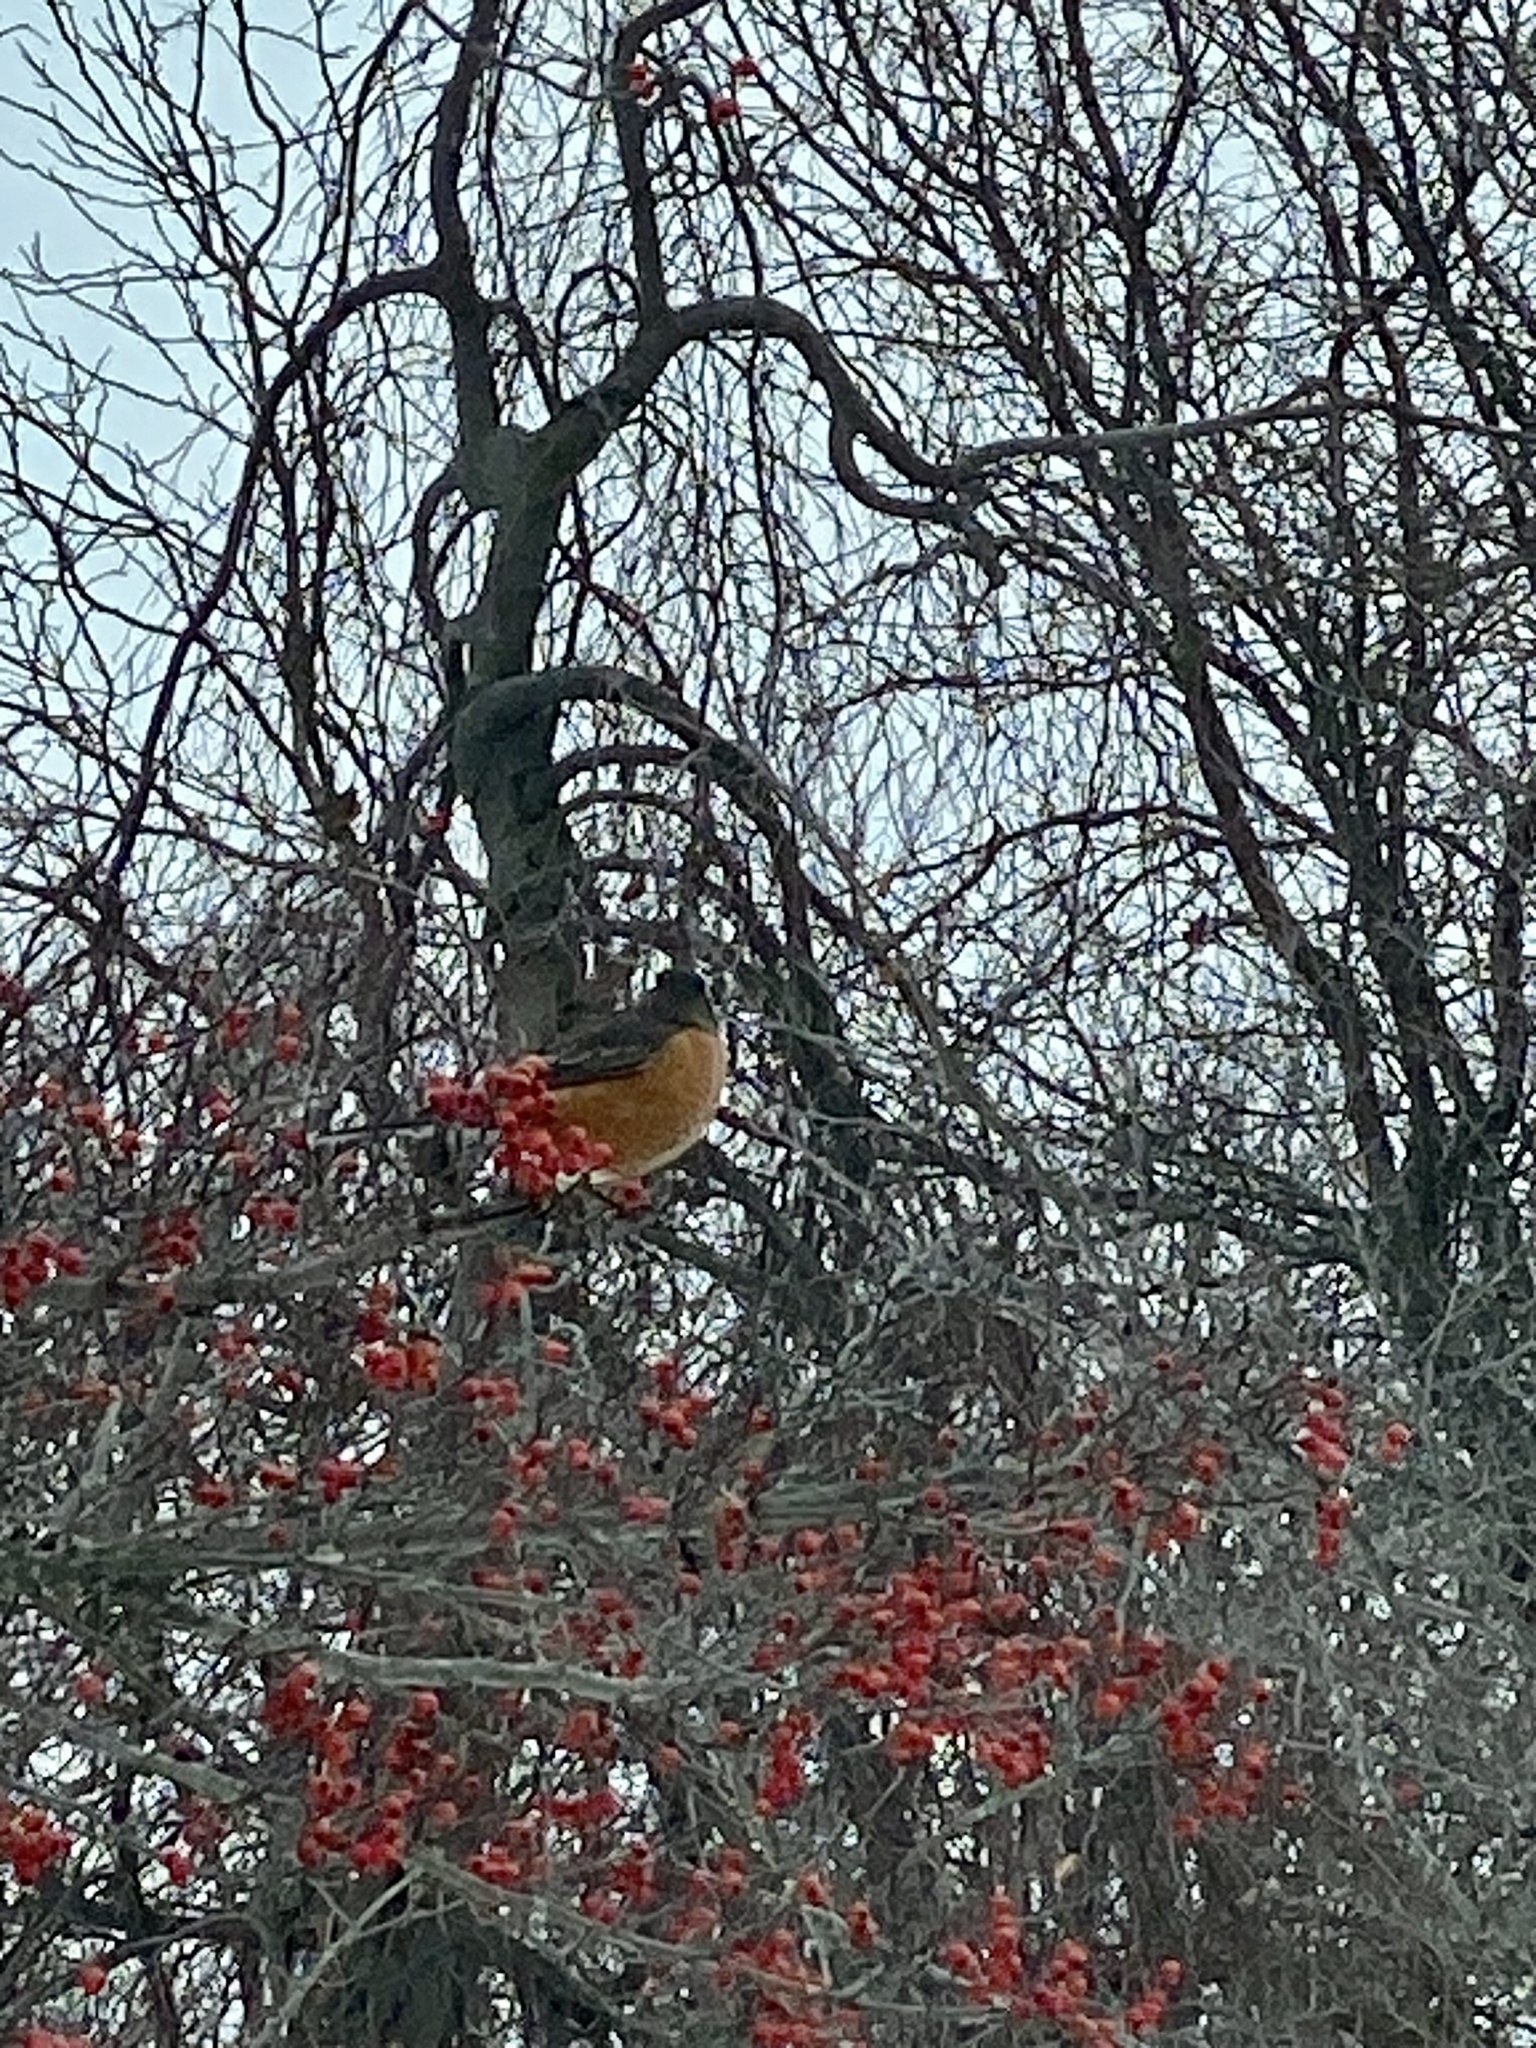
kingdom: Animalia
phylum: Chordata
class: Aves
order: Passeriformes
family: Turdidae
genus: Turdus
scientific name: Turdus migratorius
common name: American robin
